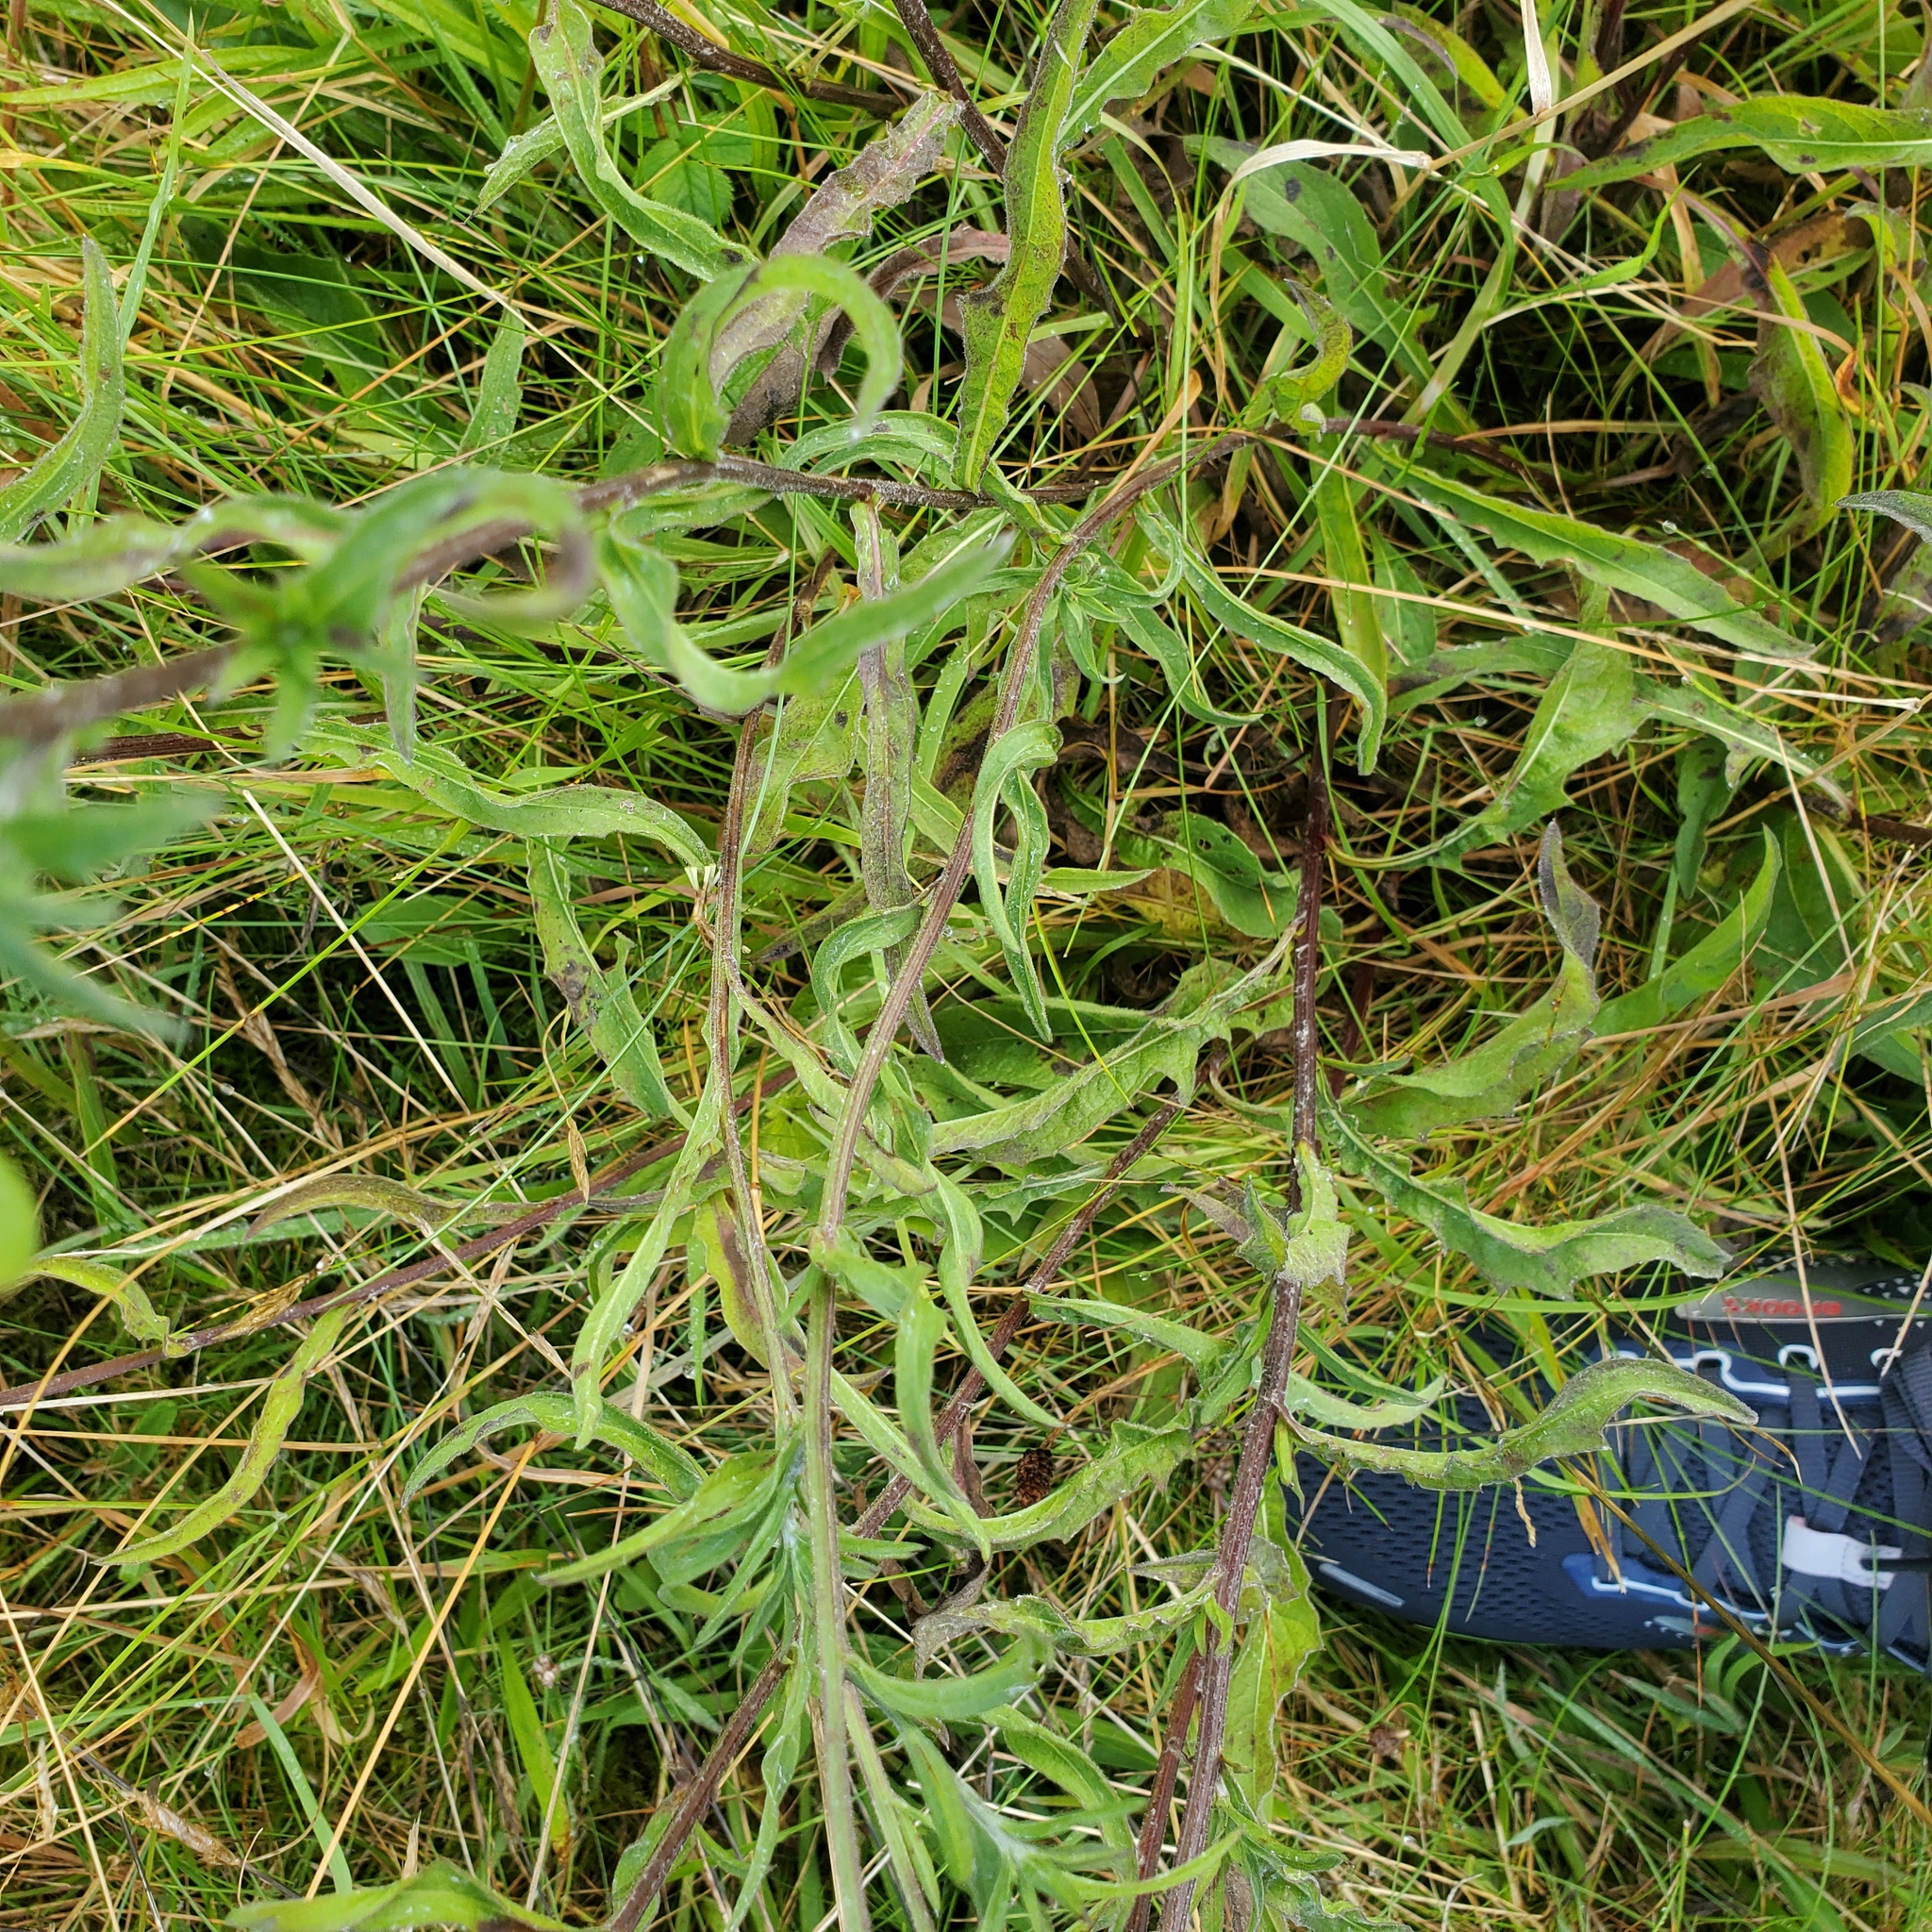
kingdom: Plantae
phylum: Tracheophyta
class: Magnoliopsida
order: Asterales
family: Asteraceae
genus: Centaurea
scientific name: Centaurea nigra
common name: Lesser knapweed
